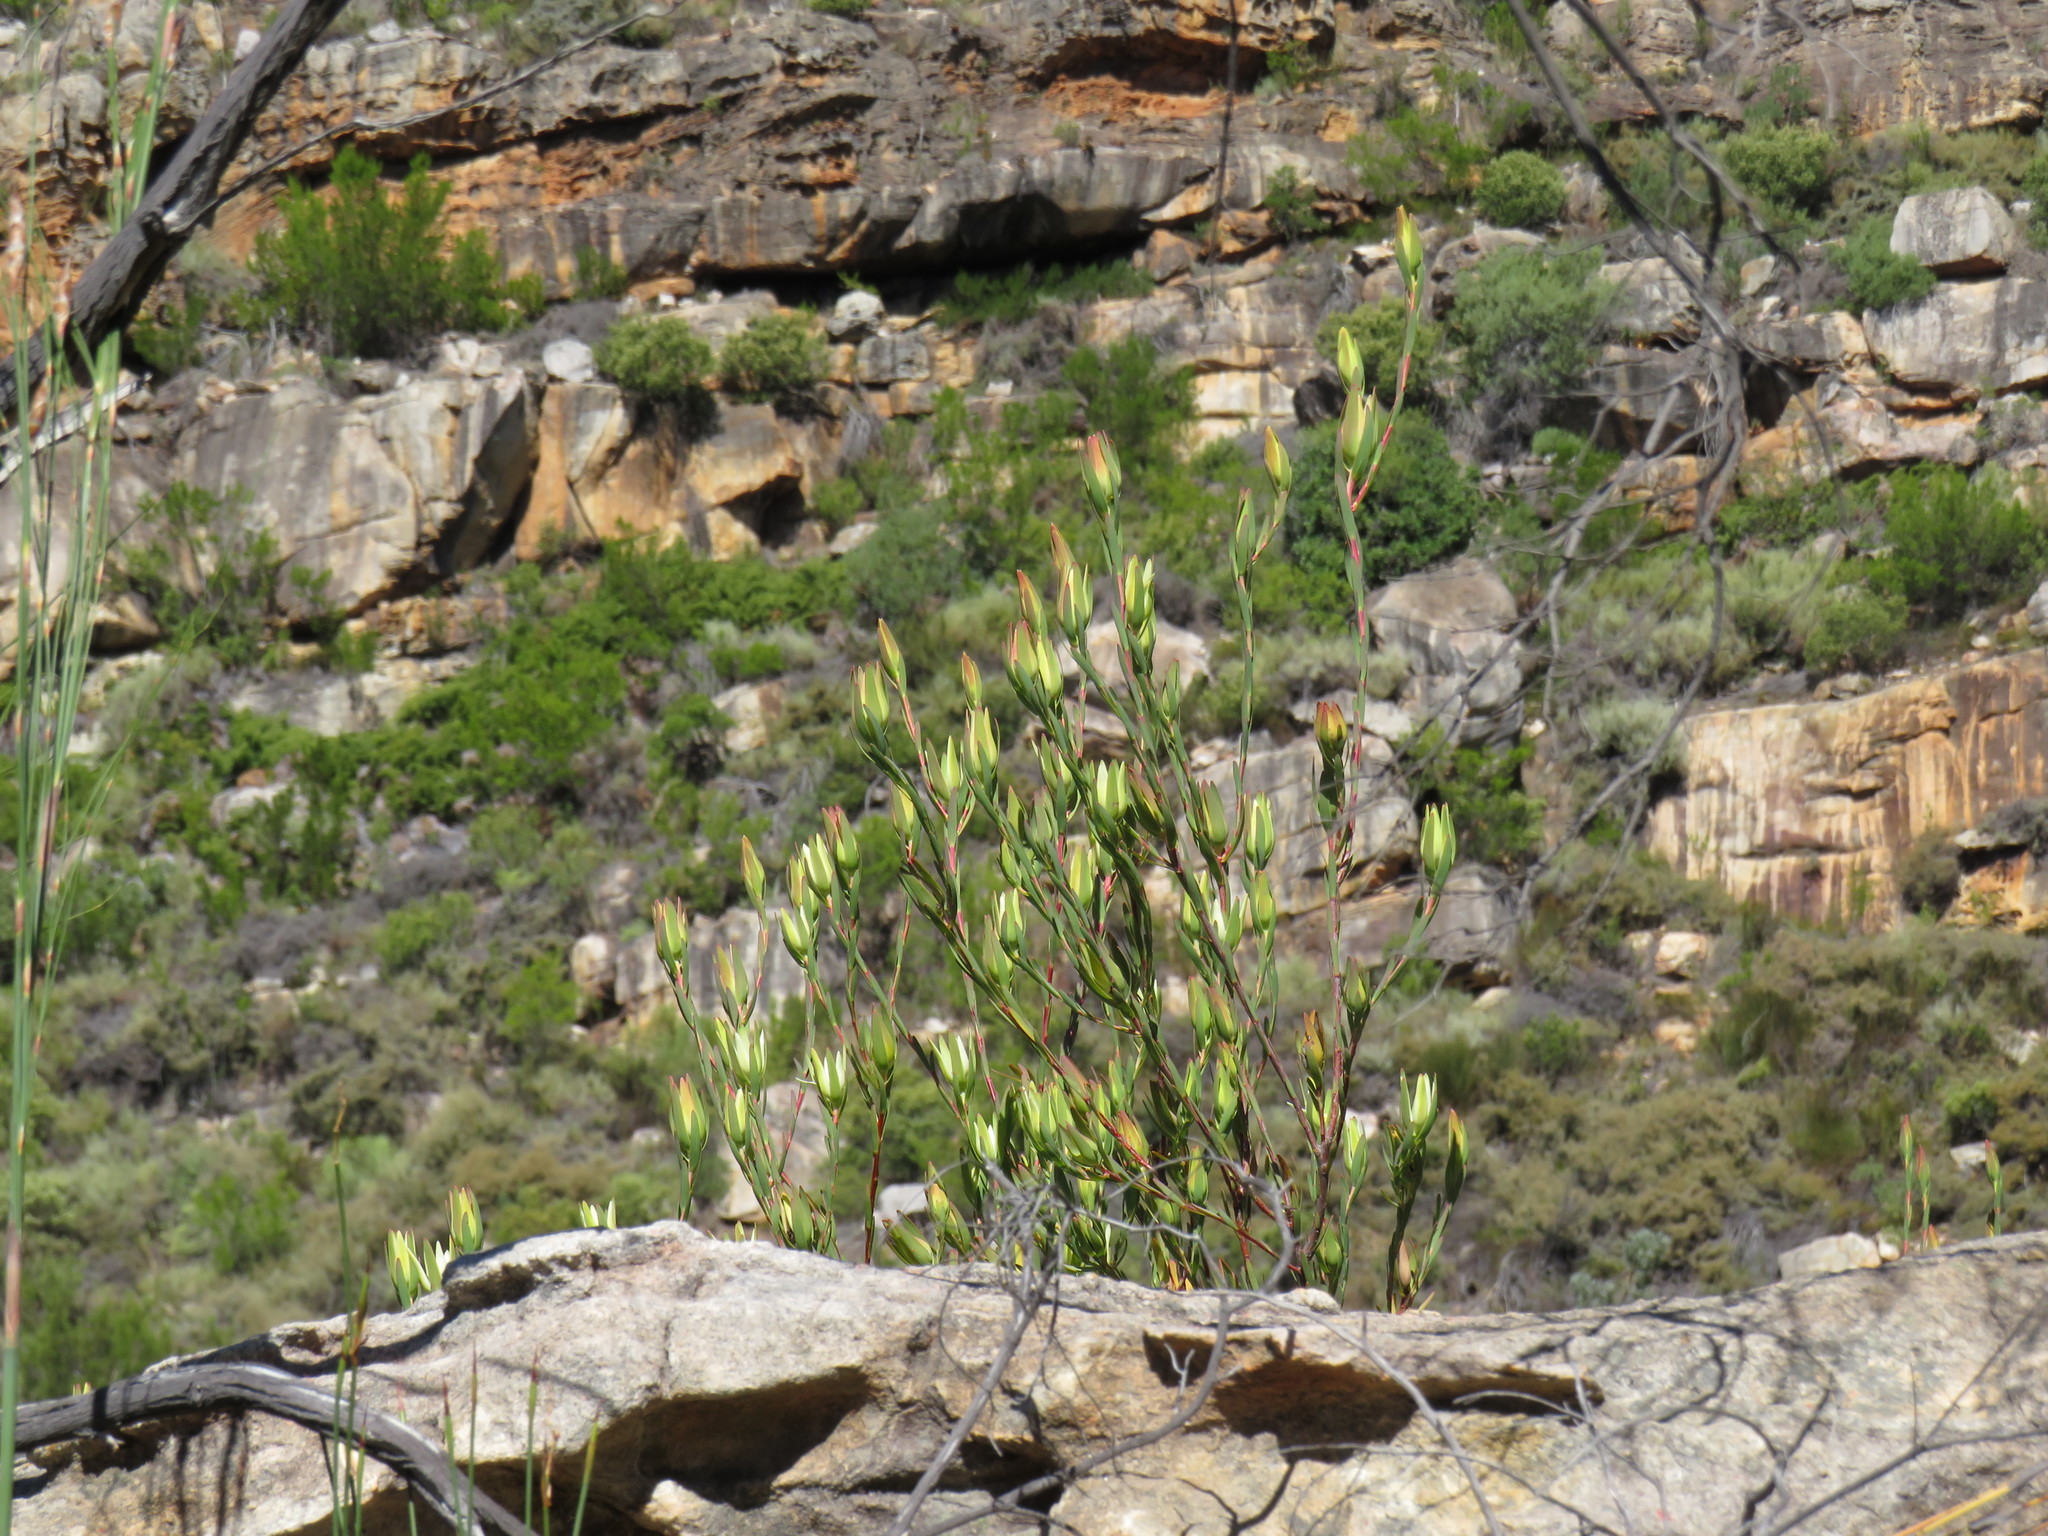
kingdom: Plantae
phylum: Tracheophyta
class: Magnoliopsida
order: Proteales
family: Proteaceae
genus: Leucadendron
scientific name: Leucadendron diemontianum
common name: Visgat conebush
